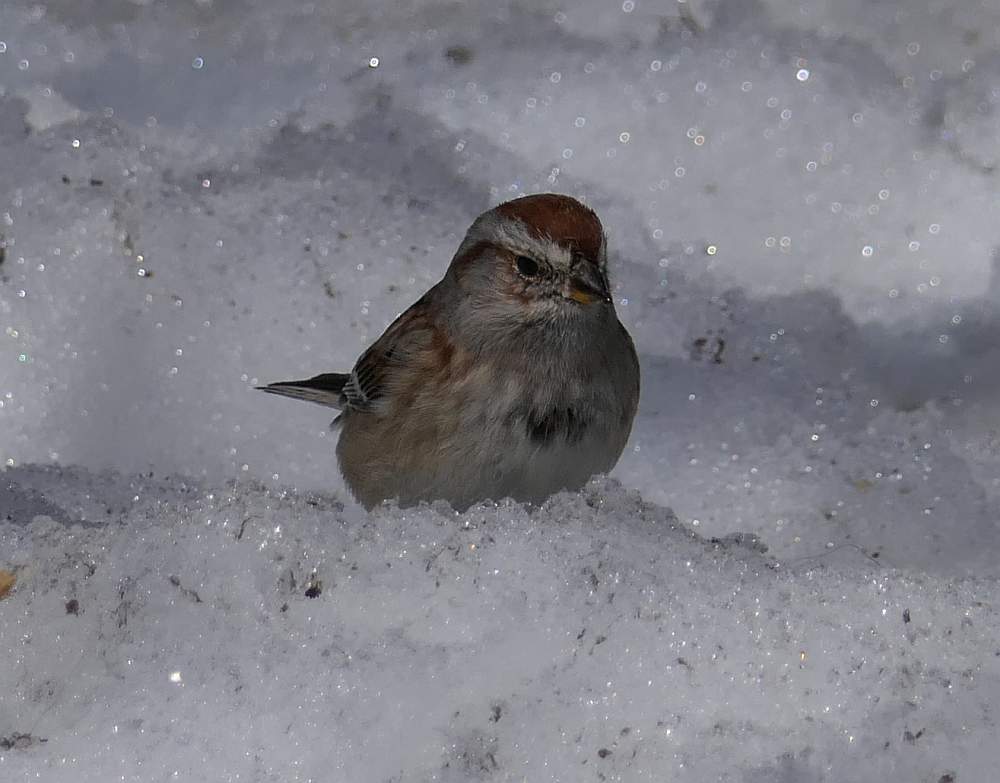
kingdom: Animalia
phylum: Chordata
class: Aves
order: Passeriformes
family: Passerellidae
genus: Spizelloides
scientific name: Spizelloides arborea
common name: American tree sparrow
